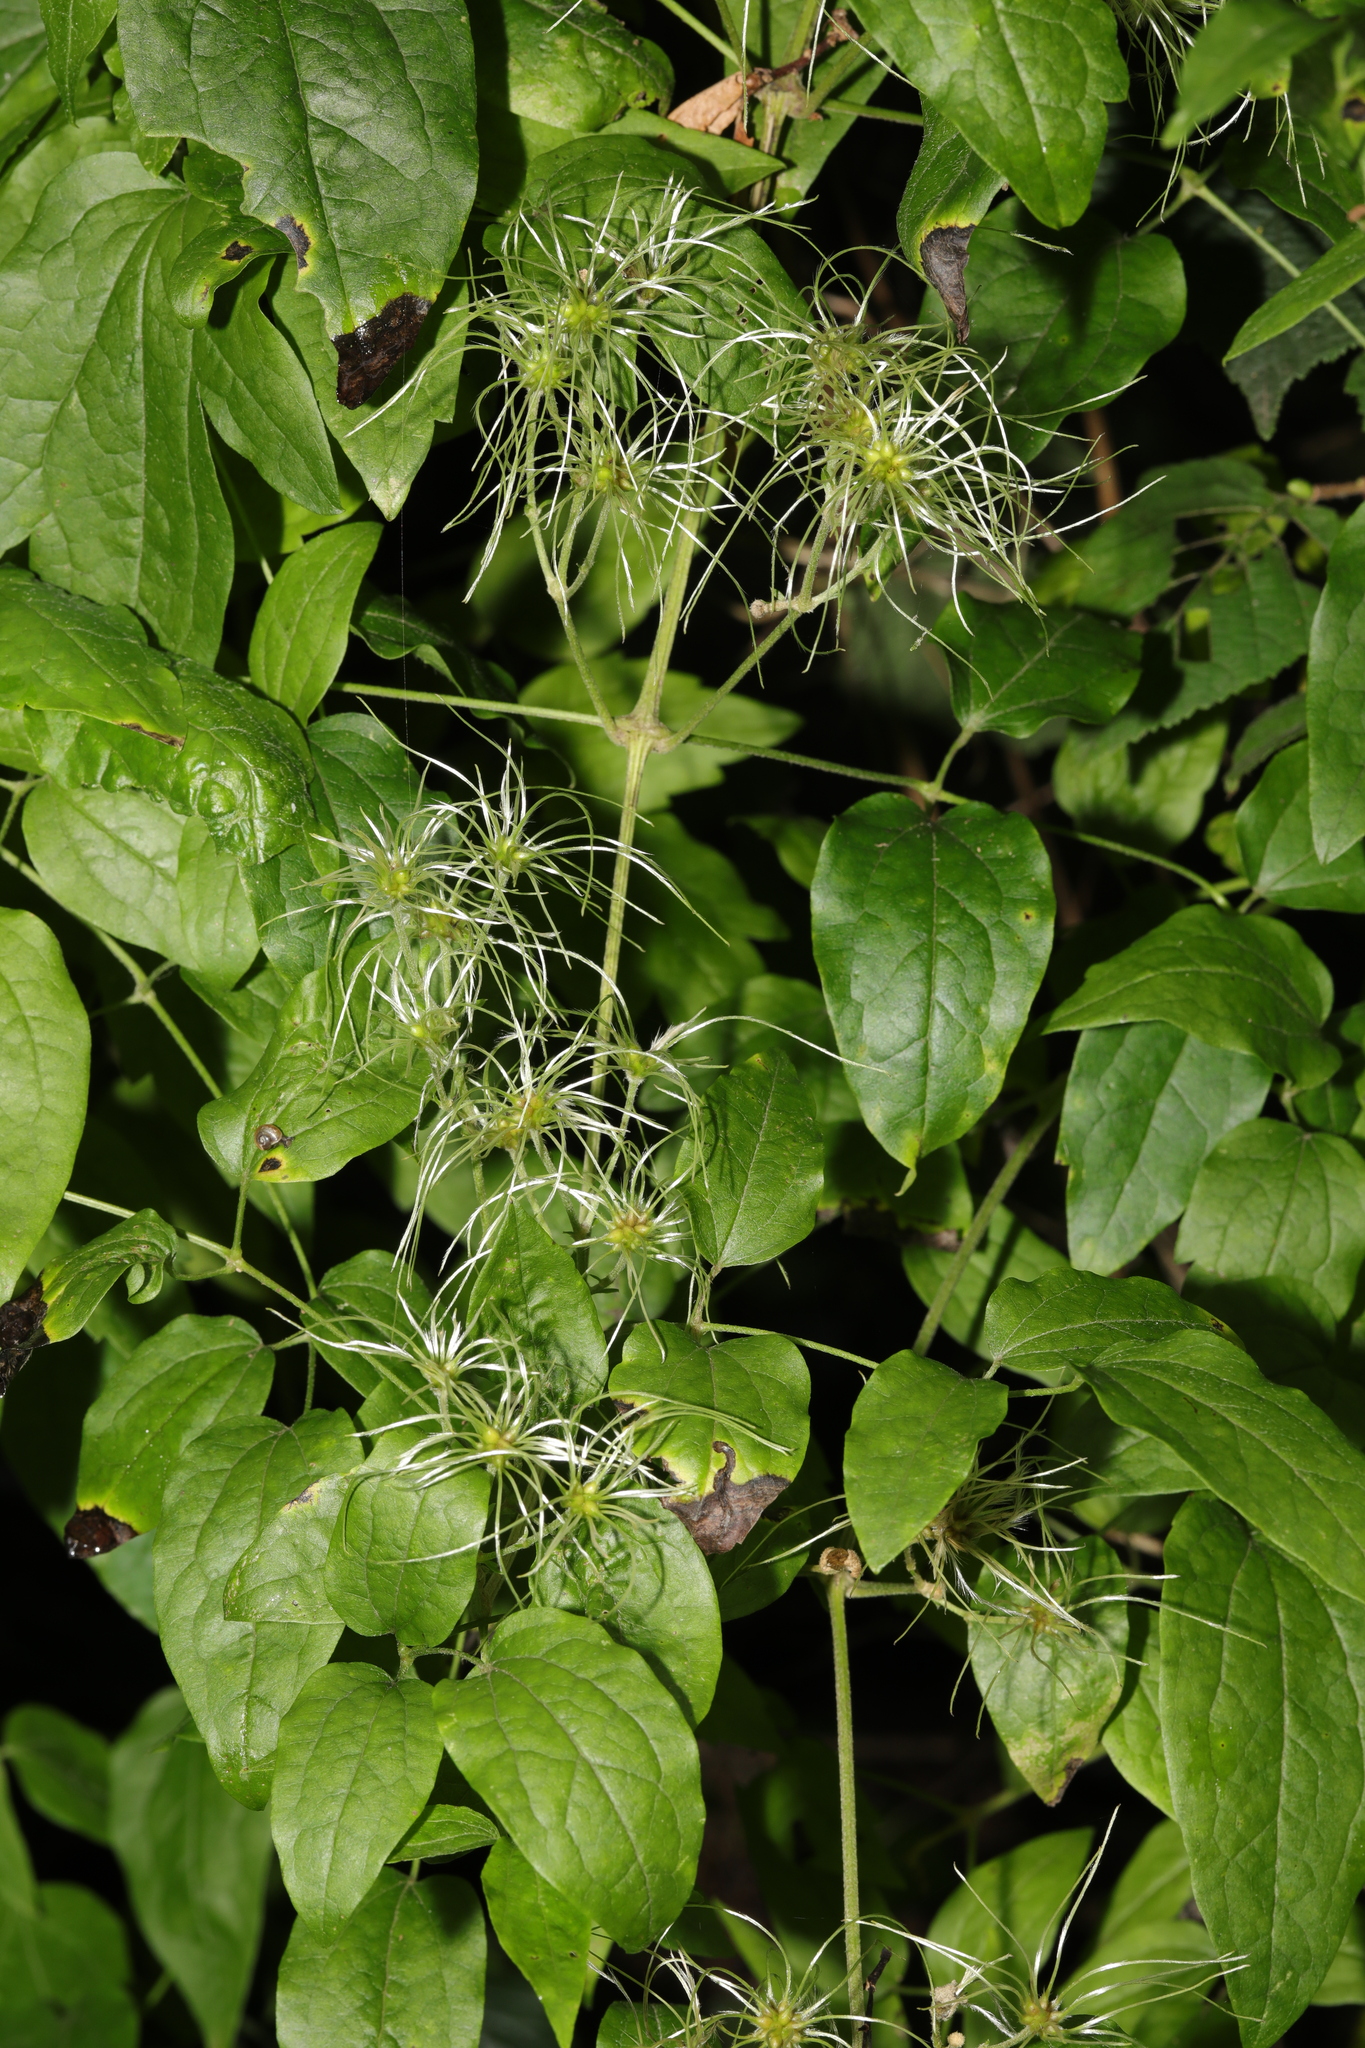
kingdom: Plantae
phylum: Tracheophyta
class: Magnoliopsida
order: Ranunculales
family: Ranunculaceae
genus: Clematis
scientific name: Clematis vitalba
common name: Evergreen clematis
